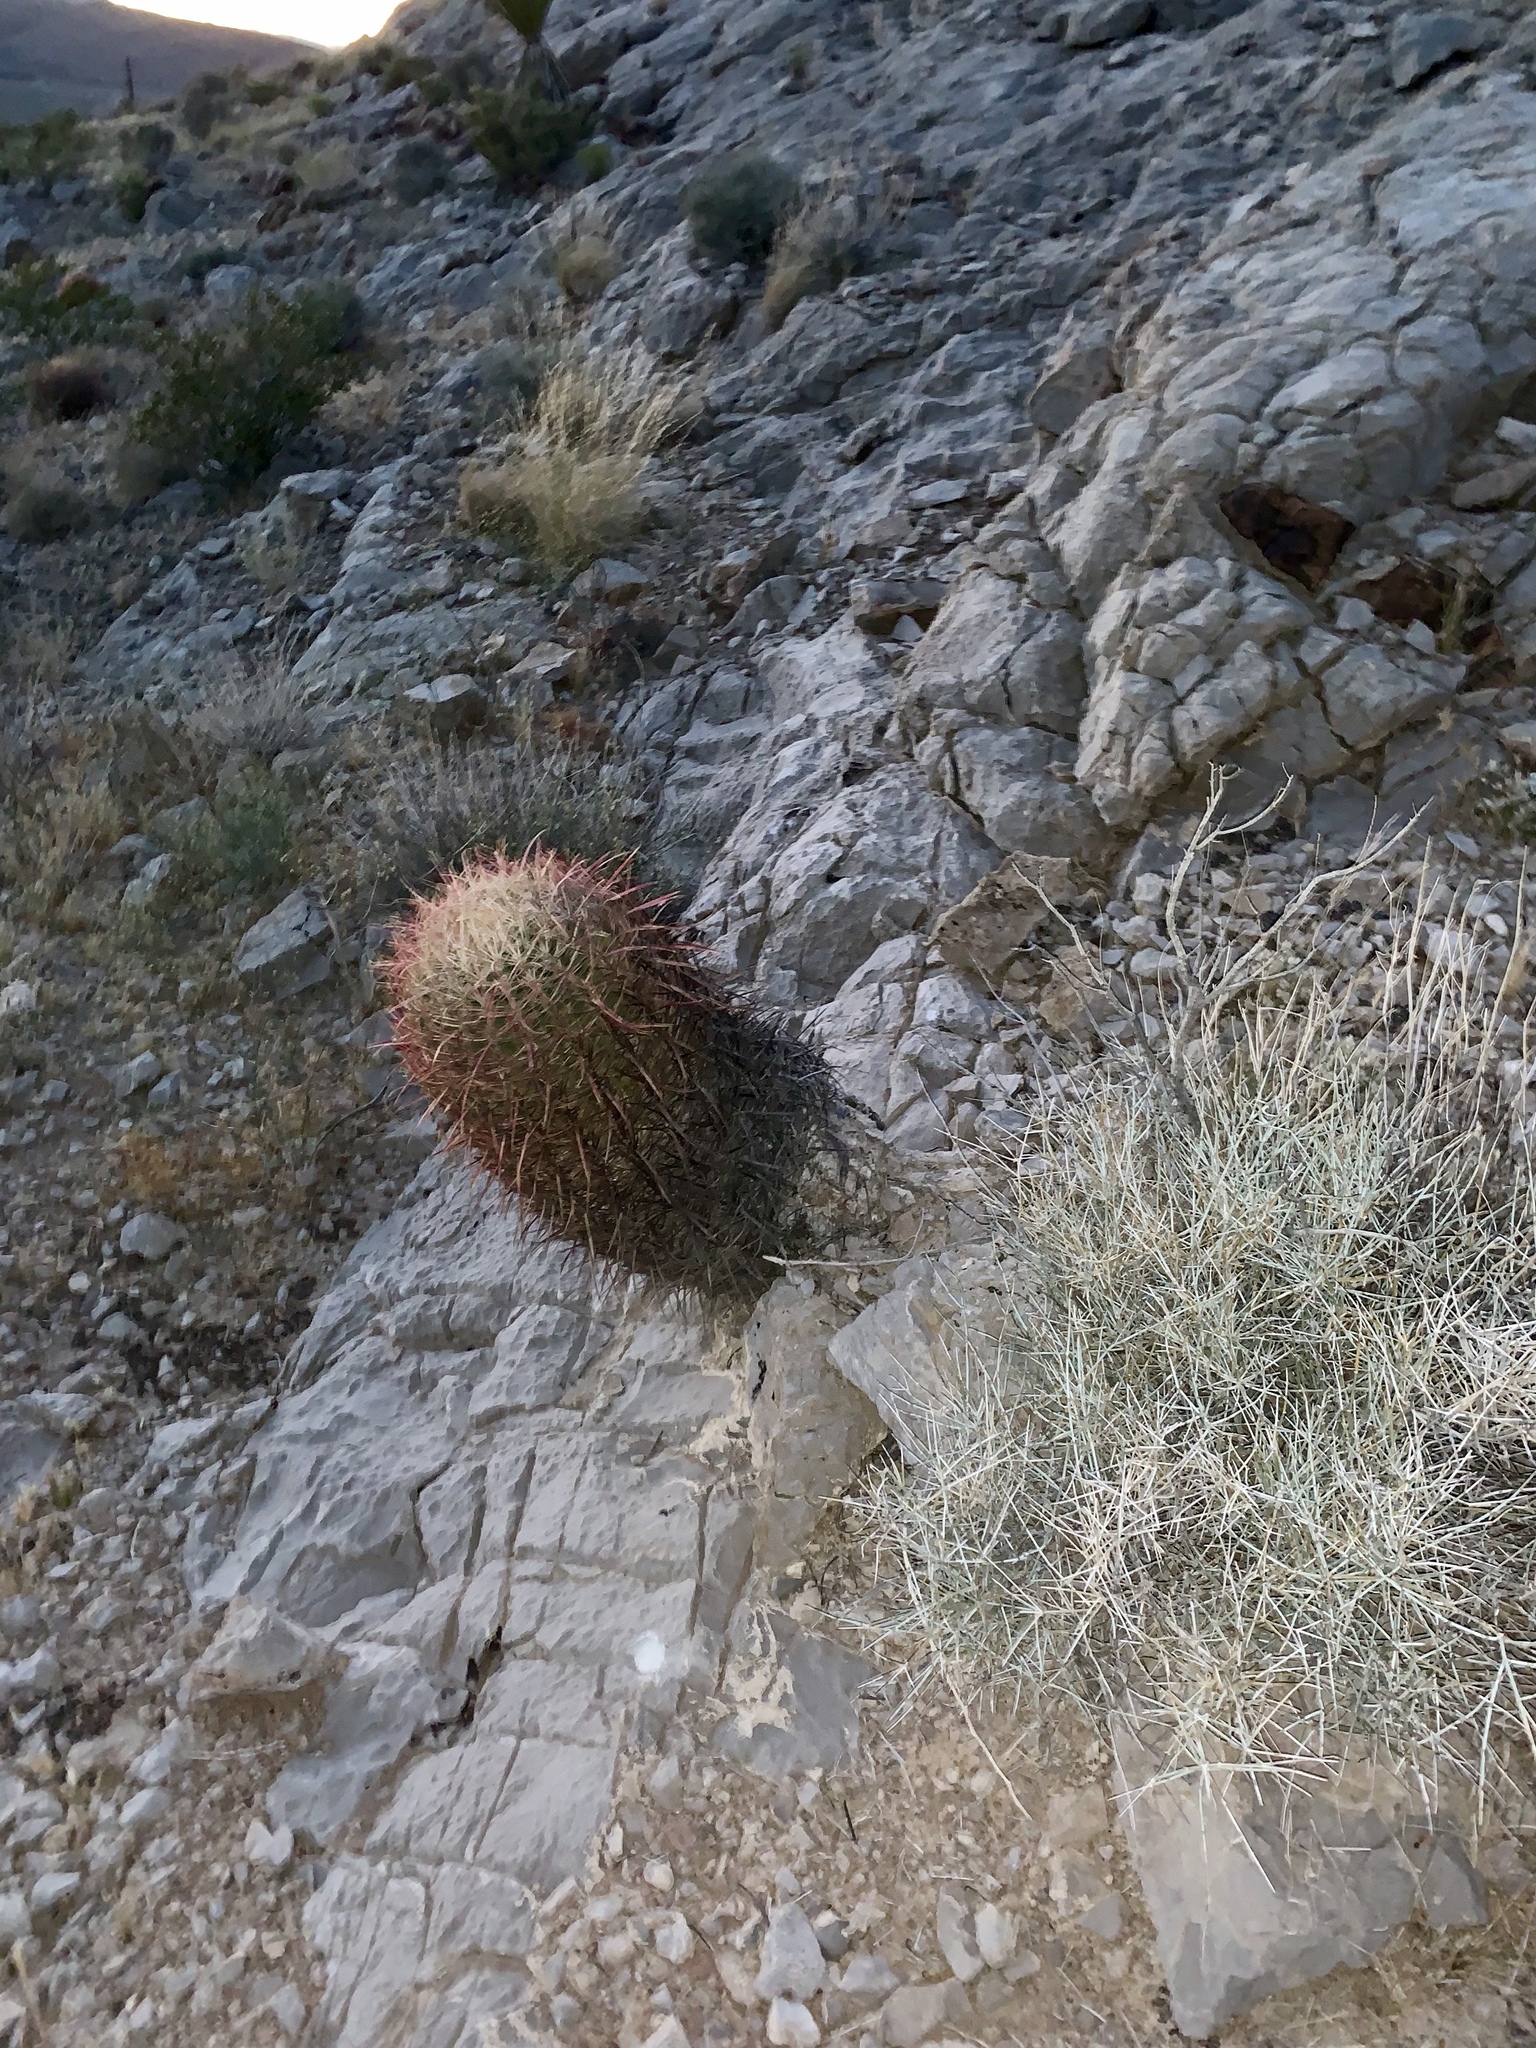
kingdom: Plantae
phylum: Tracheophyta
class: Magnoliopsida
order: Caryophyllales
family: Cactaceae
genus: Ferocactus
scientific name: Ferocactus cylindraceus
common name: California barrel cactus
